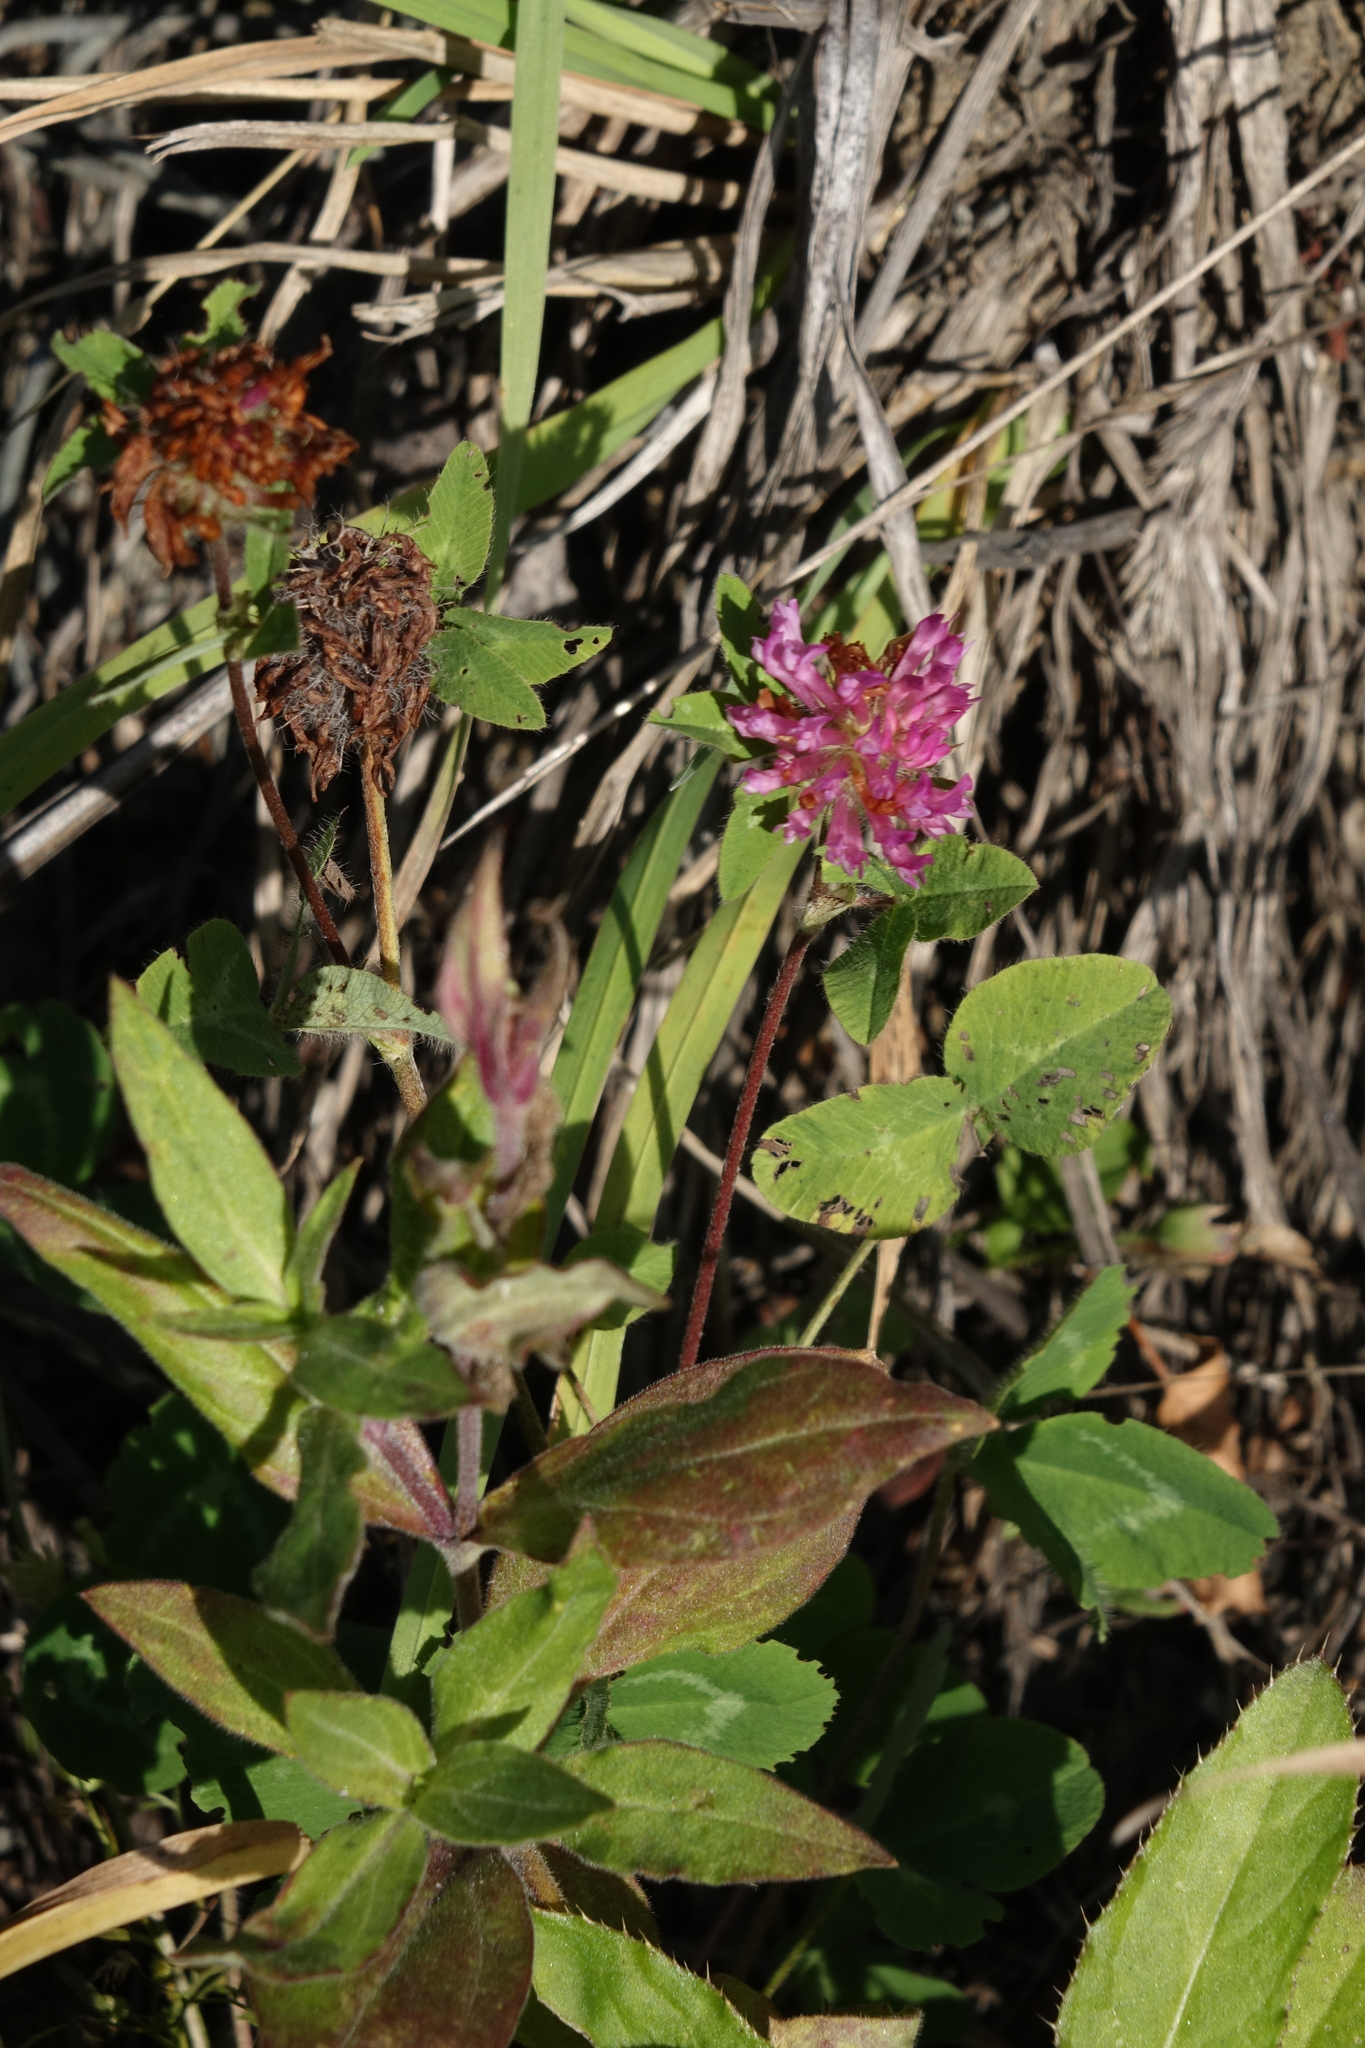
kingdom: Plantae
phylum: Tracheophyta
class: Magnoliopsida
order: Fabales
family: Fabaceae
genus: Trifolium
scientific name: Trifolium pratense
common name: Red clover
